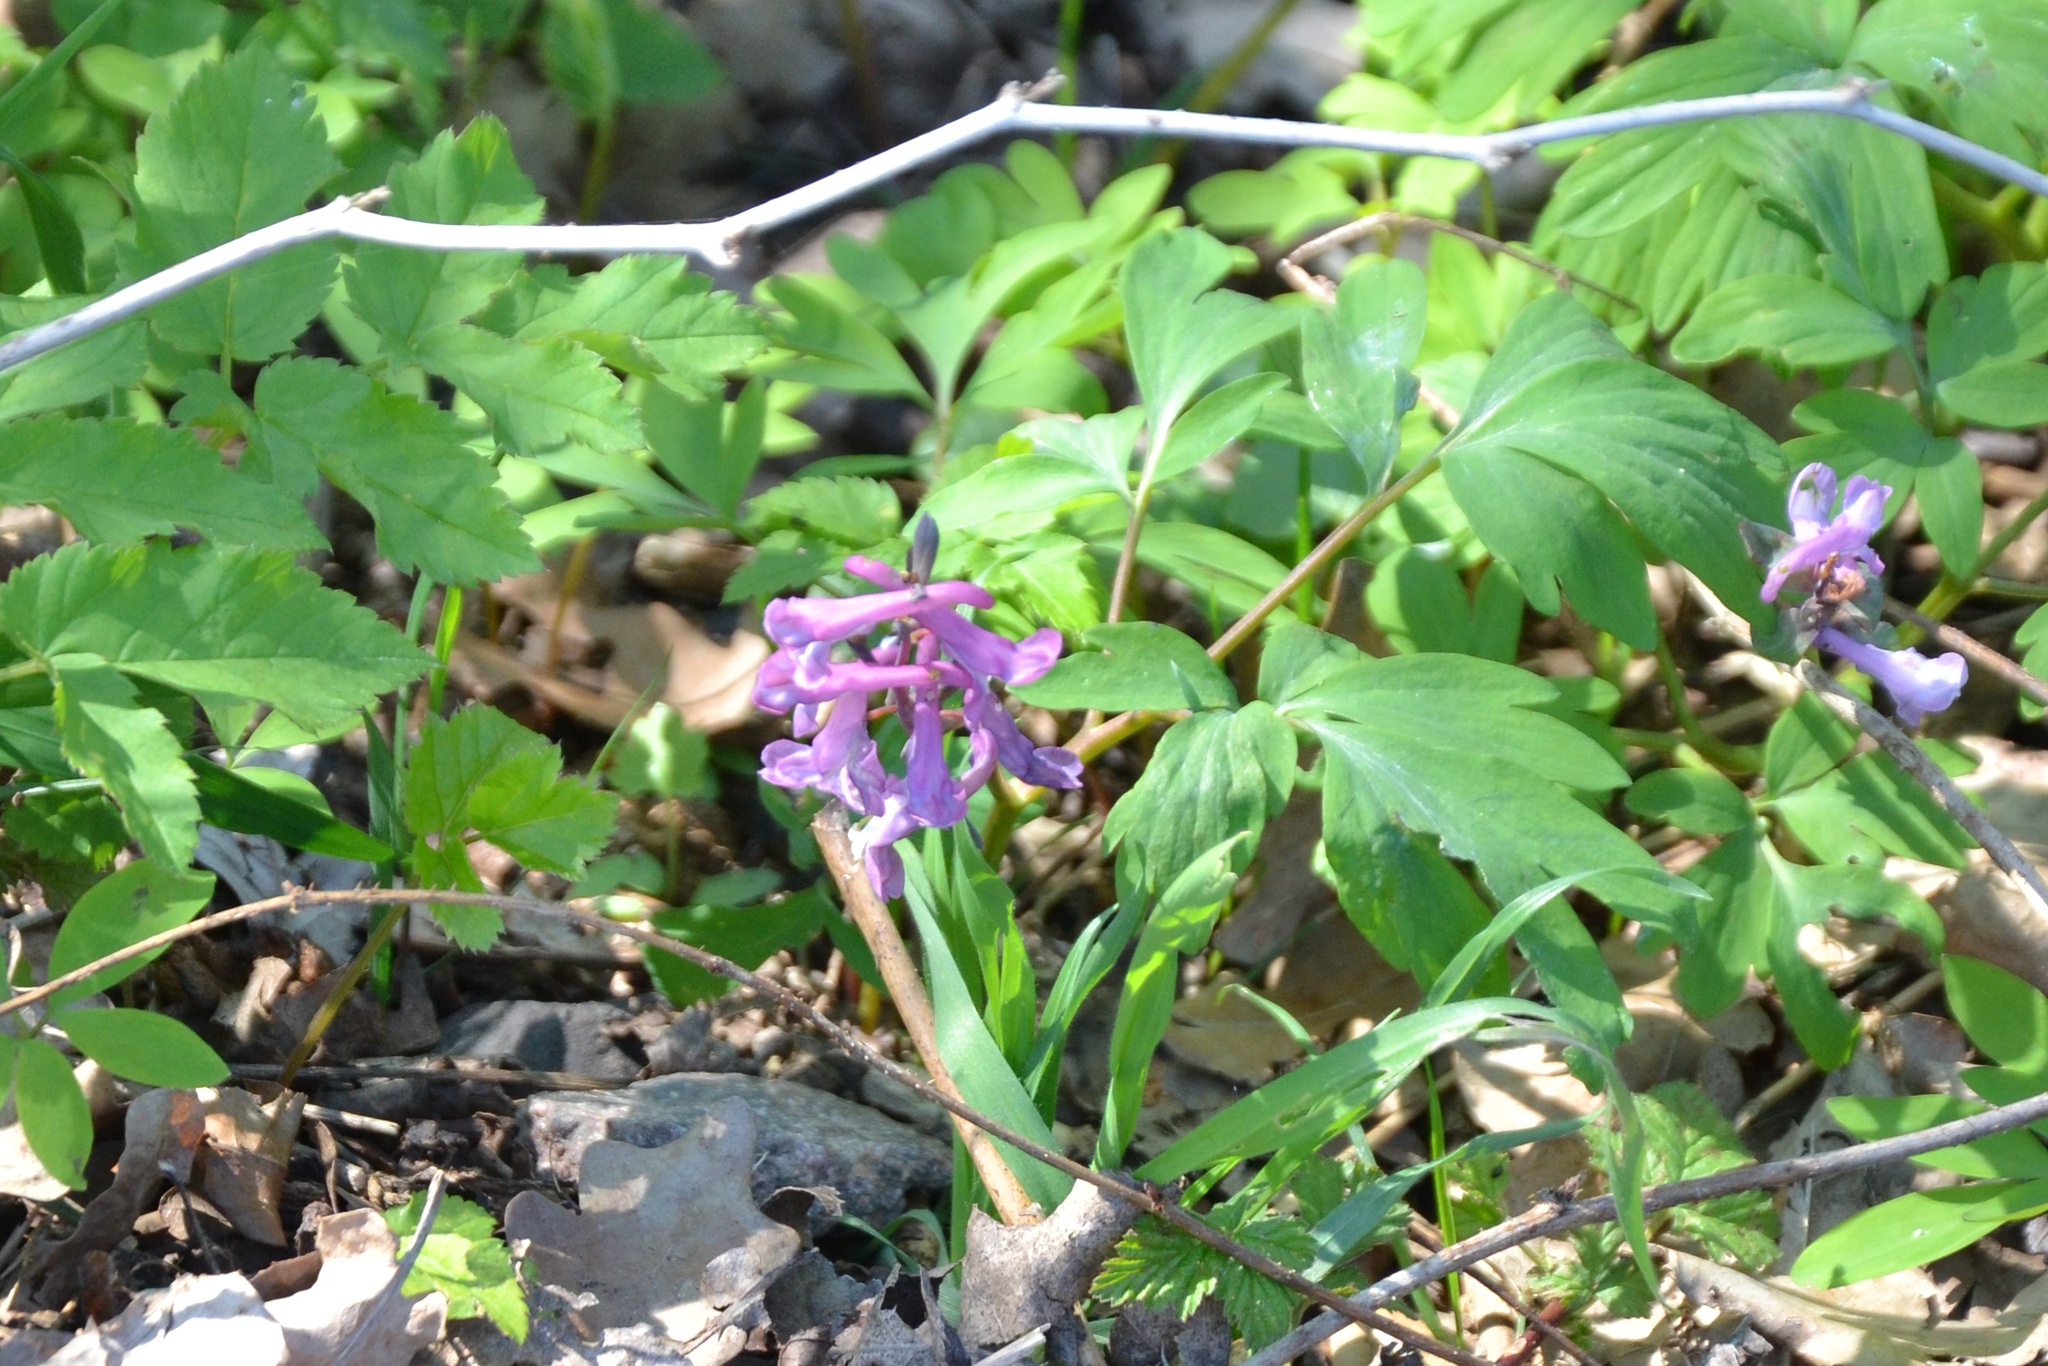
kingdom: Plantae
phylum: Tracheophyta
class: Magnoliopsida
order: Ranunculales
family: Papaveraceae
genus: Corydalis
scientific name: Corydalis cava
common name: Hollowroot
